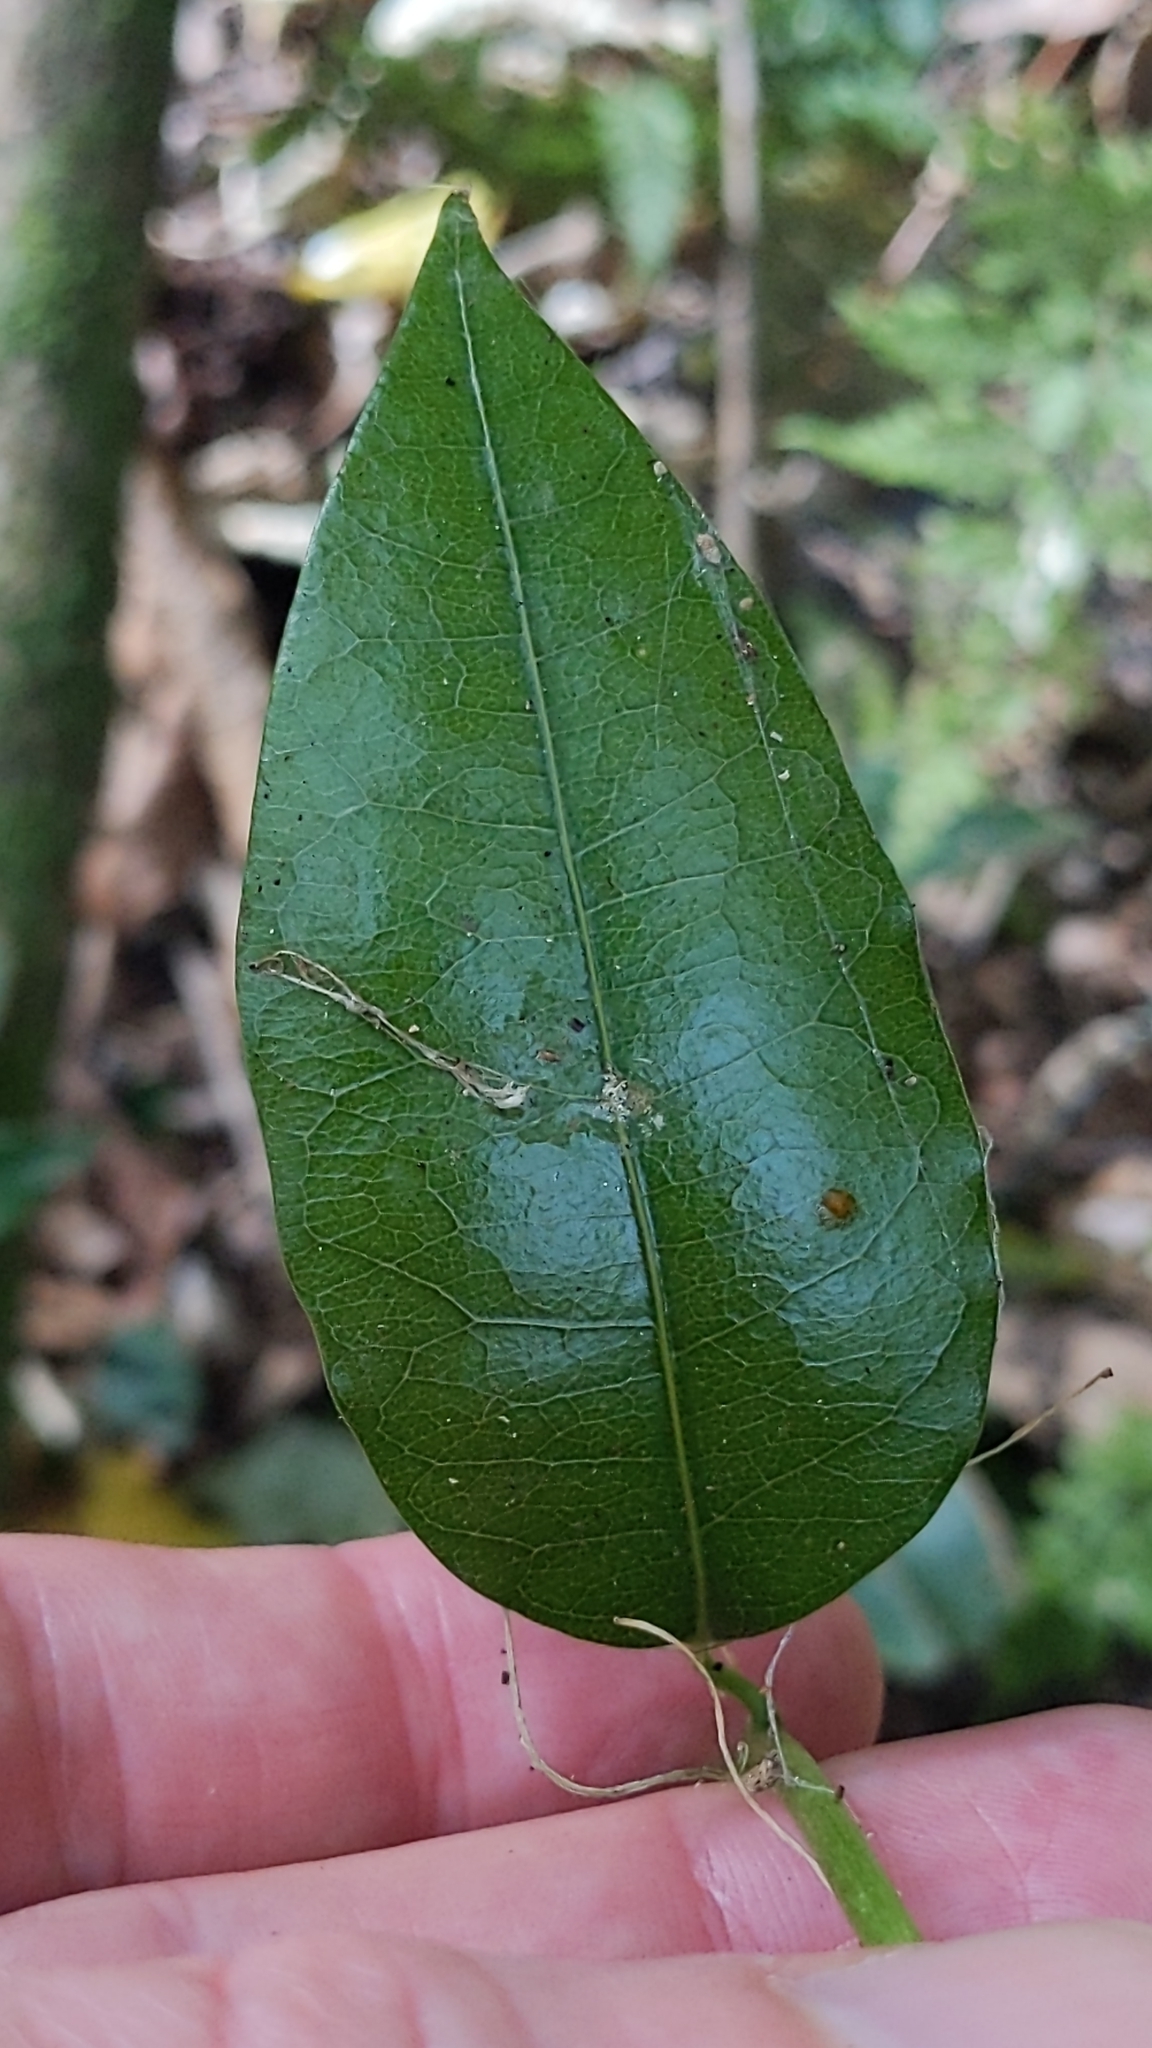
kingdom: Plantae
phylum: Tracheophyta
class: Magnoliopsida
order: Malpighiales
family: Passifloraceae
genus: Passiflora
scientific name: Passiflora tetrandra
